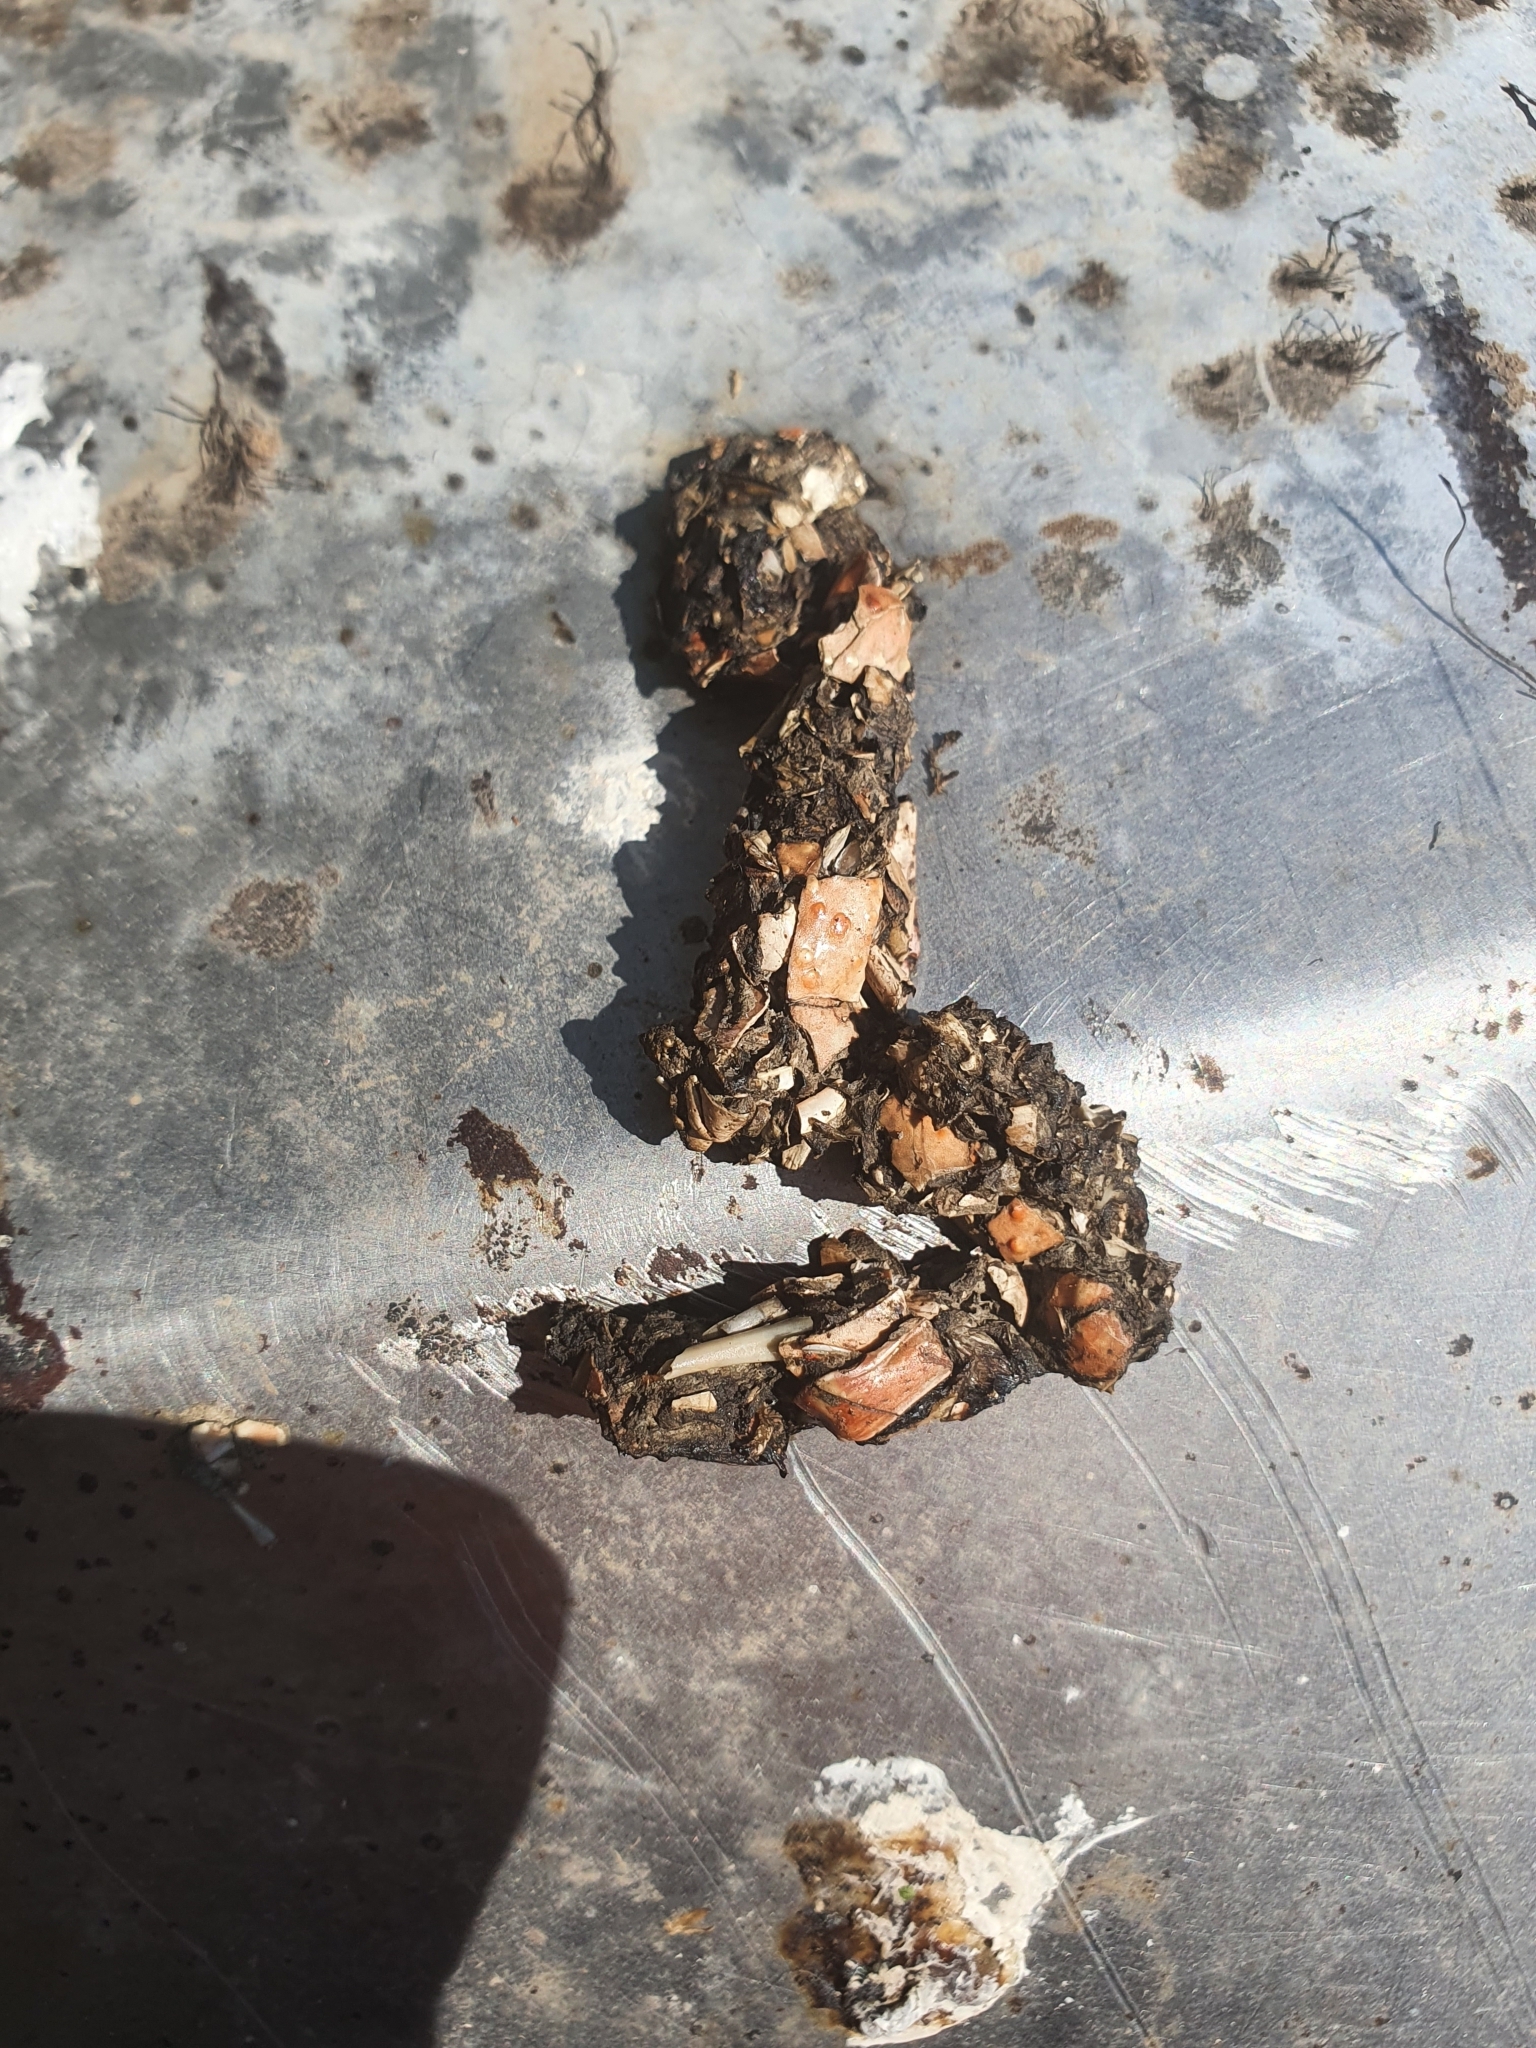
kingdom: Animalia
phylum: Chordata
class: Mammalia
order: Carnivora
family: Mustelidae
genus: Lutra
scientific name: Lutra lutra
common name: European otter
